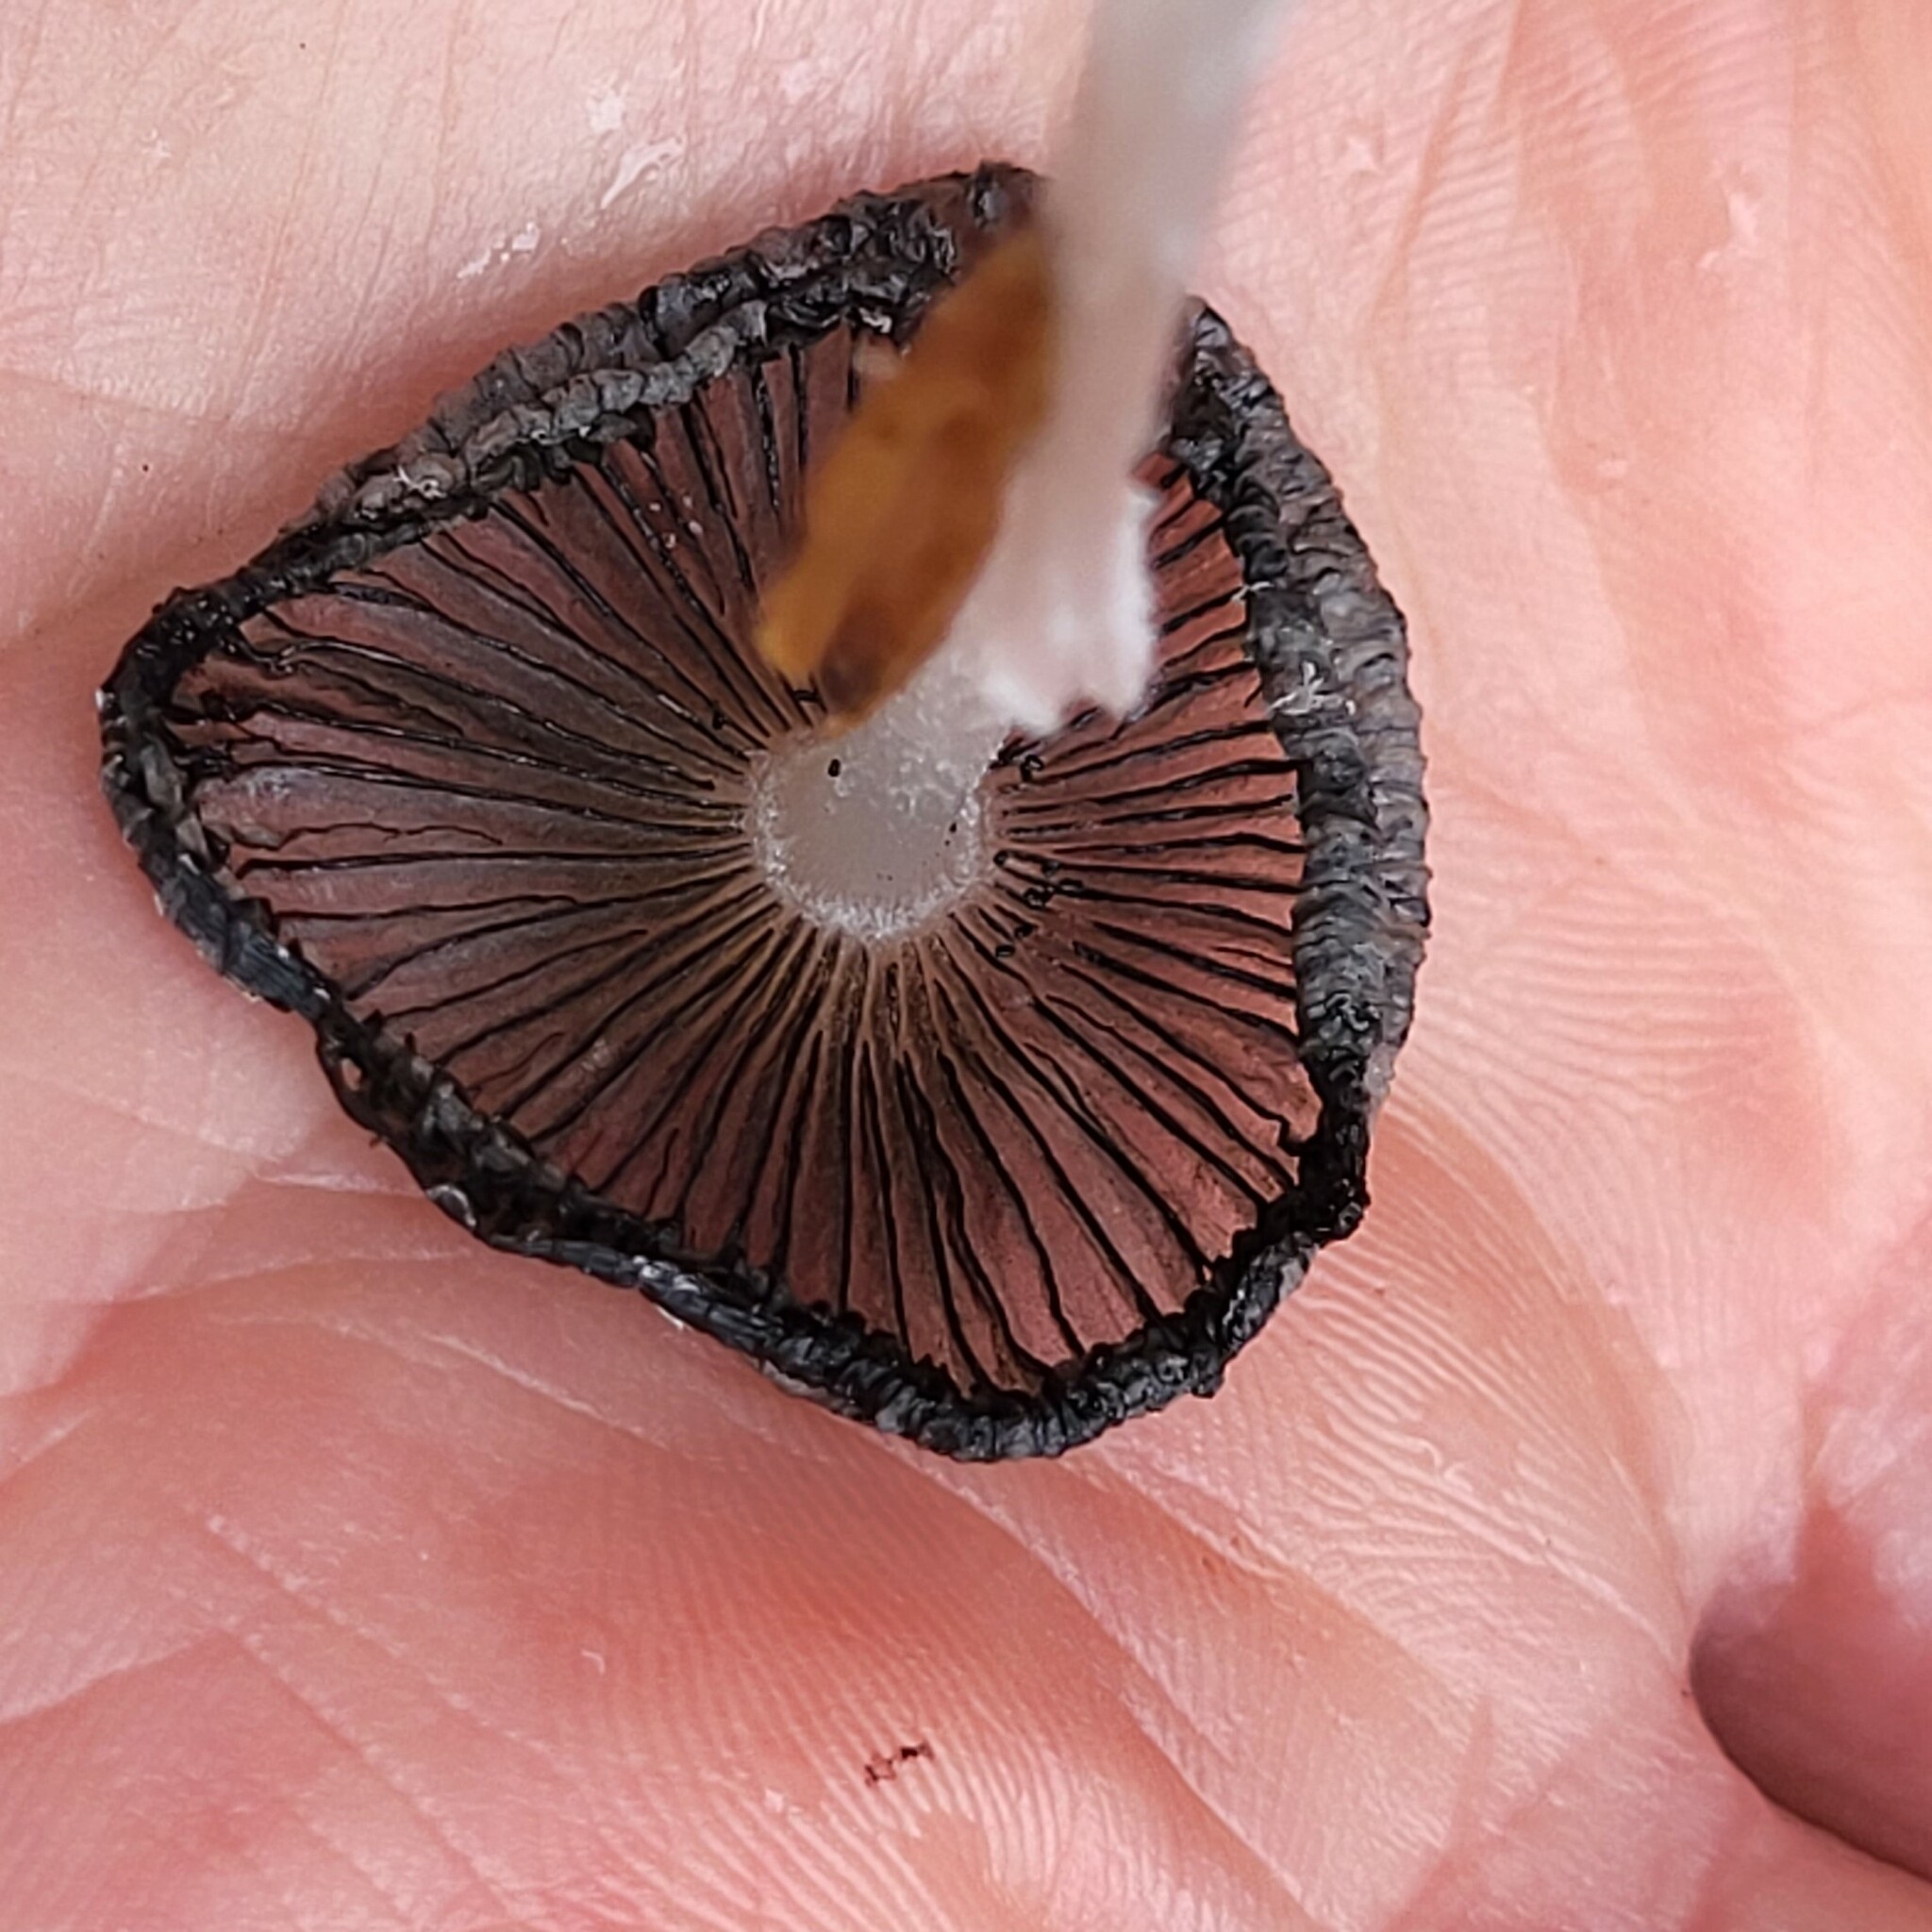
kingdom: Fungi
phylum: Basidiomycota
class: Agaricomycetes
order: Agaricales
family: Psathyrellaceae
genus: Coprinopsis
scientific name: Coprinopsis lagopus
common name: Hare'sfoot inkcap
